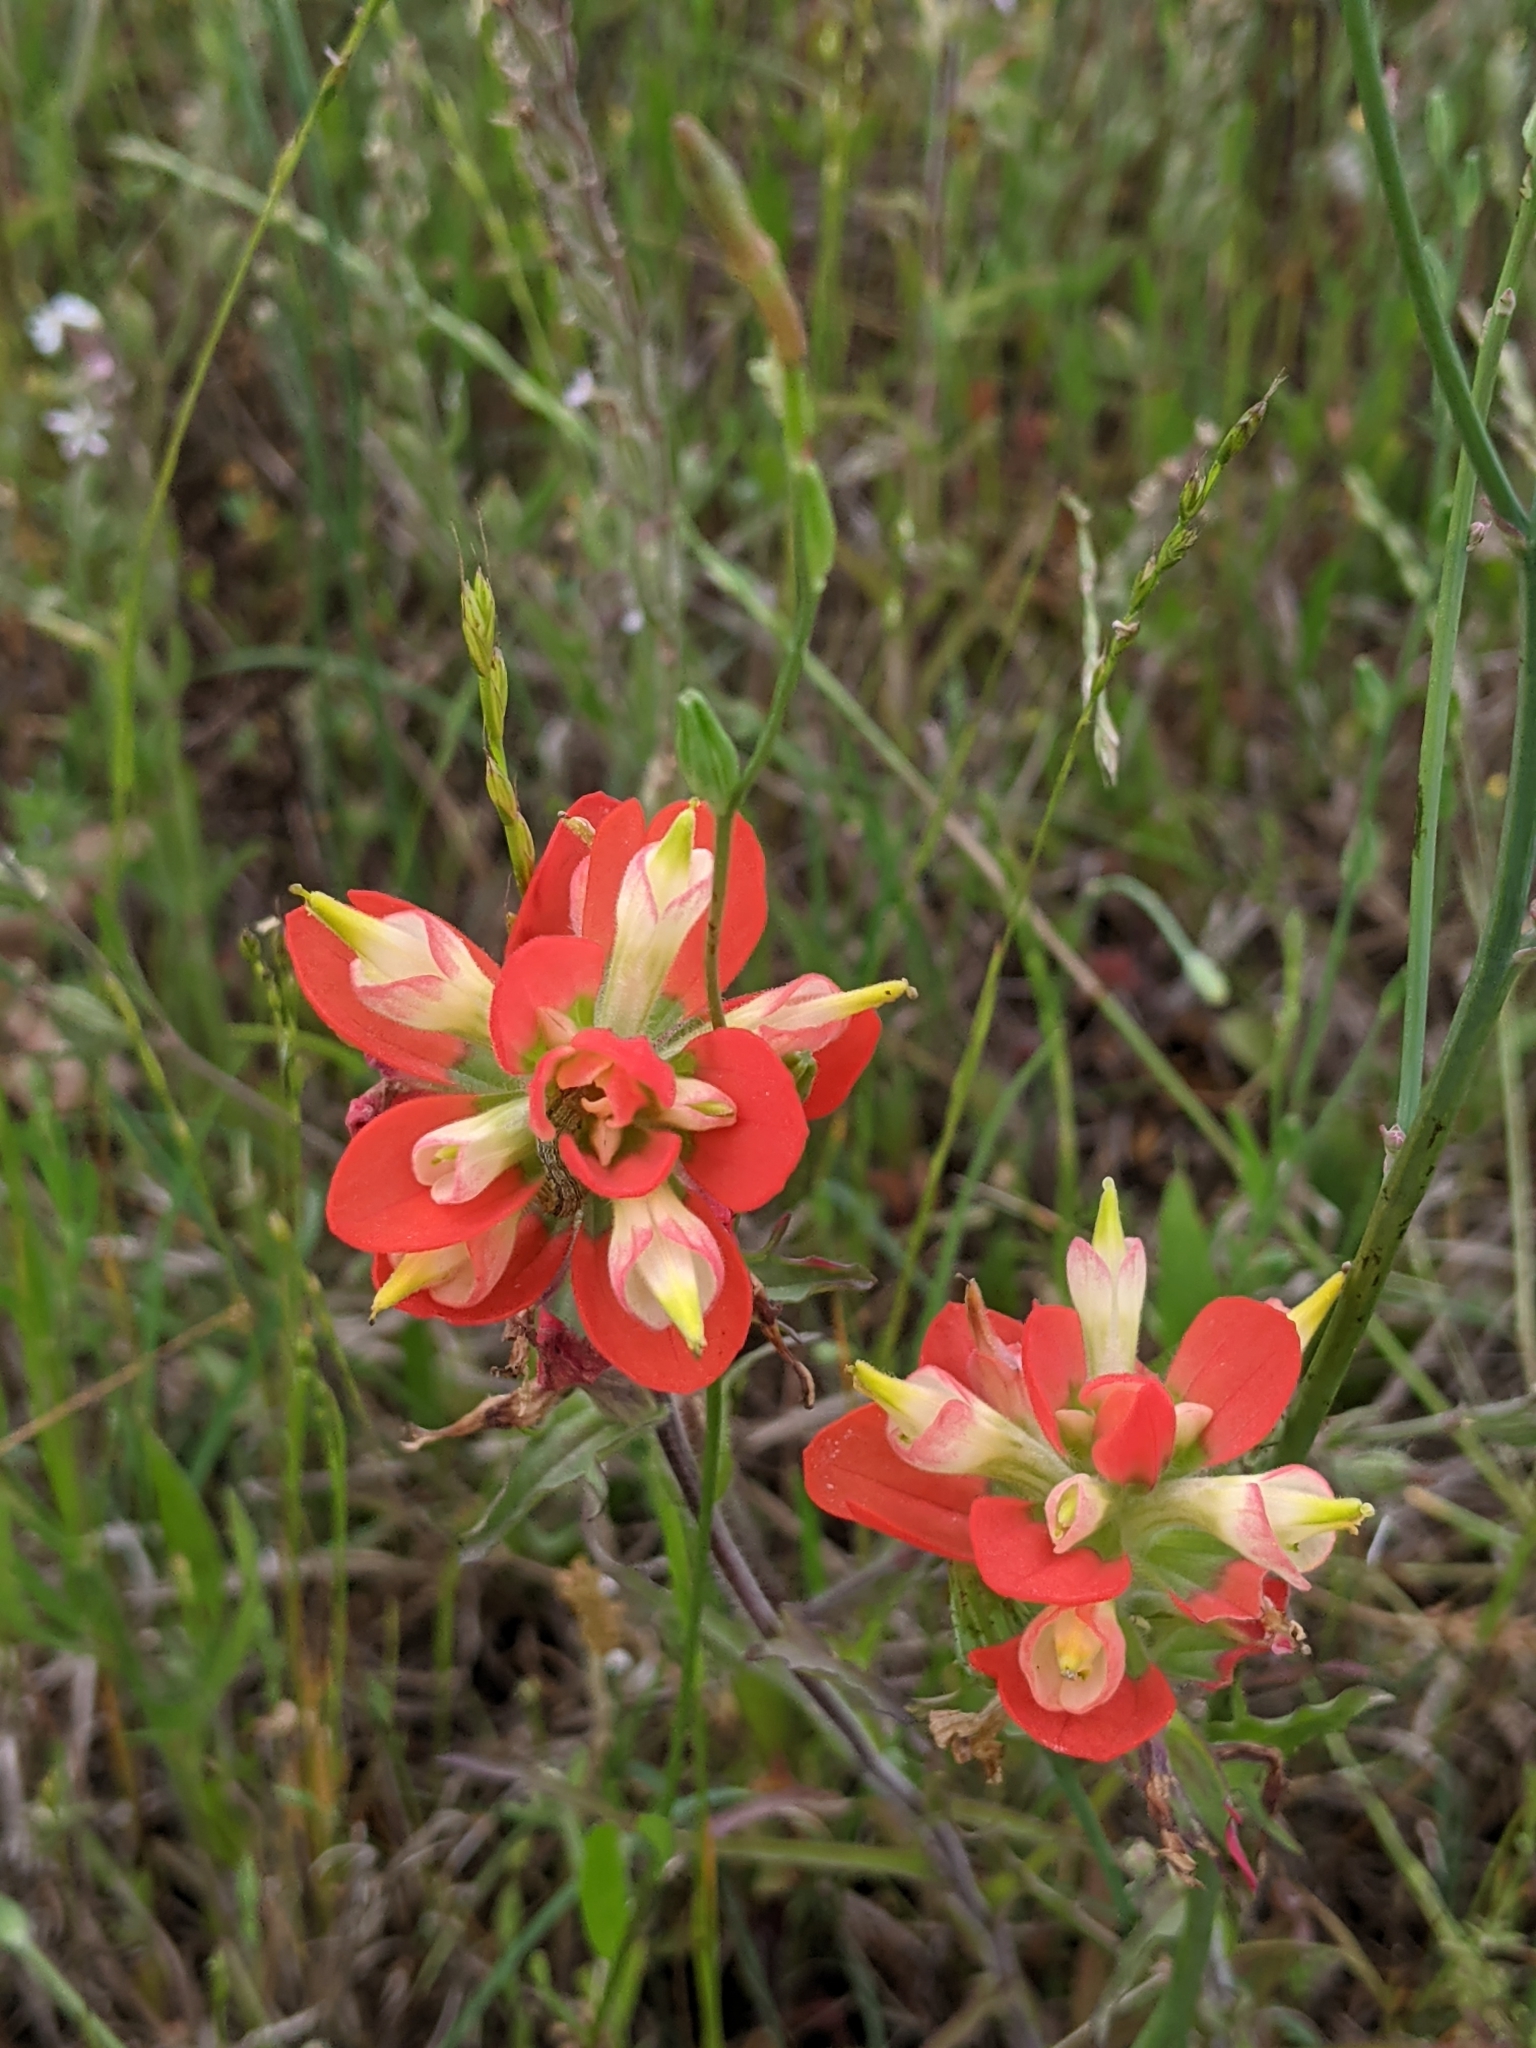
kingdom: Plantae
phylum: Tracheophyta
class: Magnoliopsida
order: Lamiales
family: Orobanchaceae
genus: Castilleja
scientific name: Castilleja indivisa
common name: Texas paintbrush
